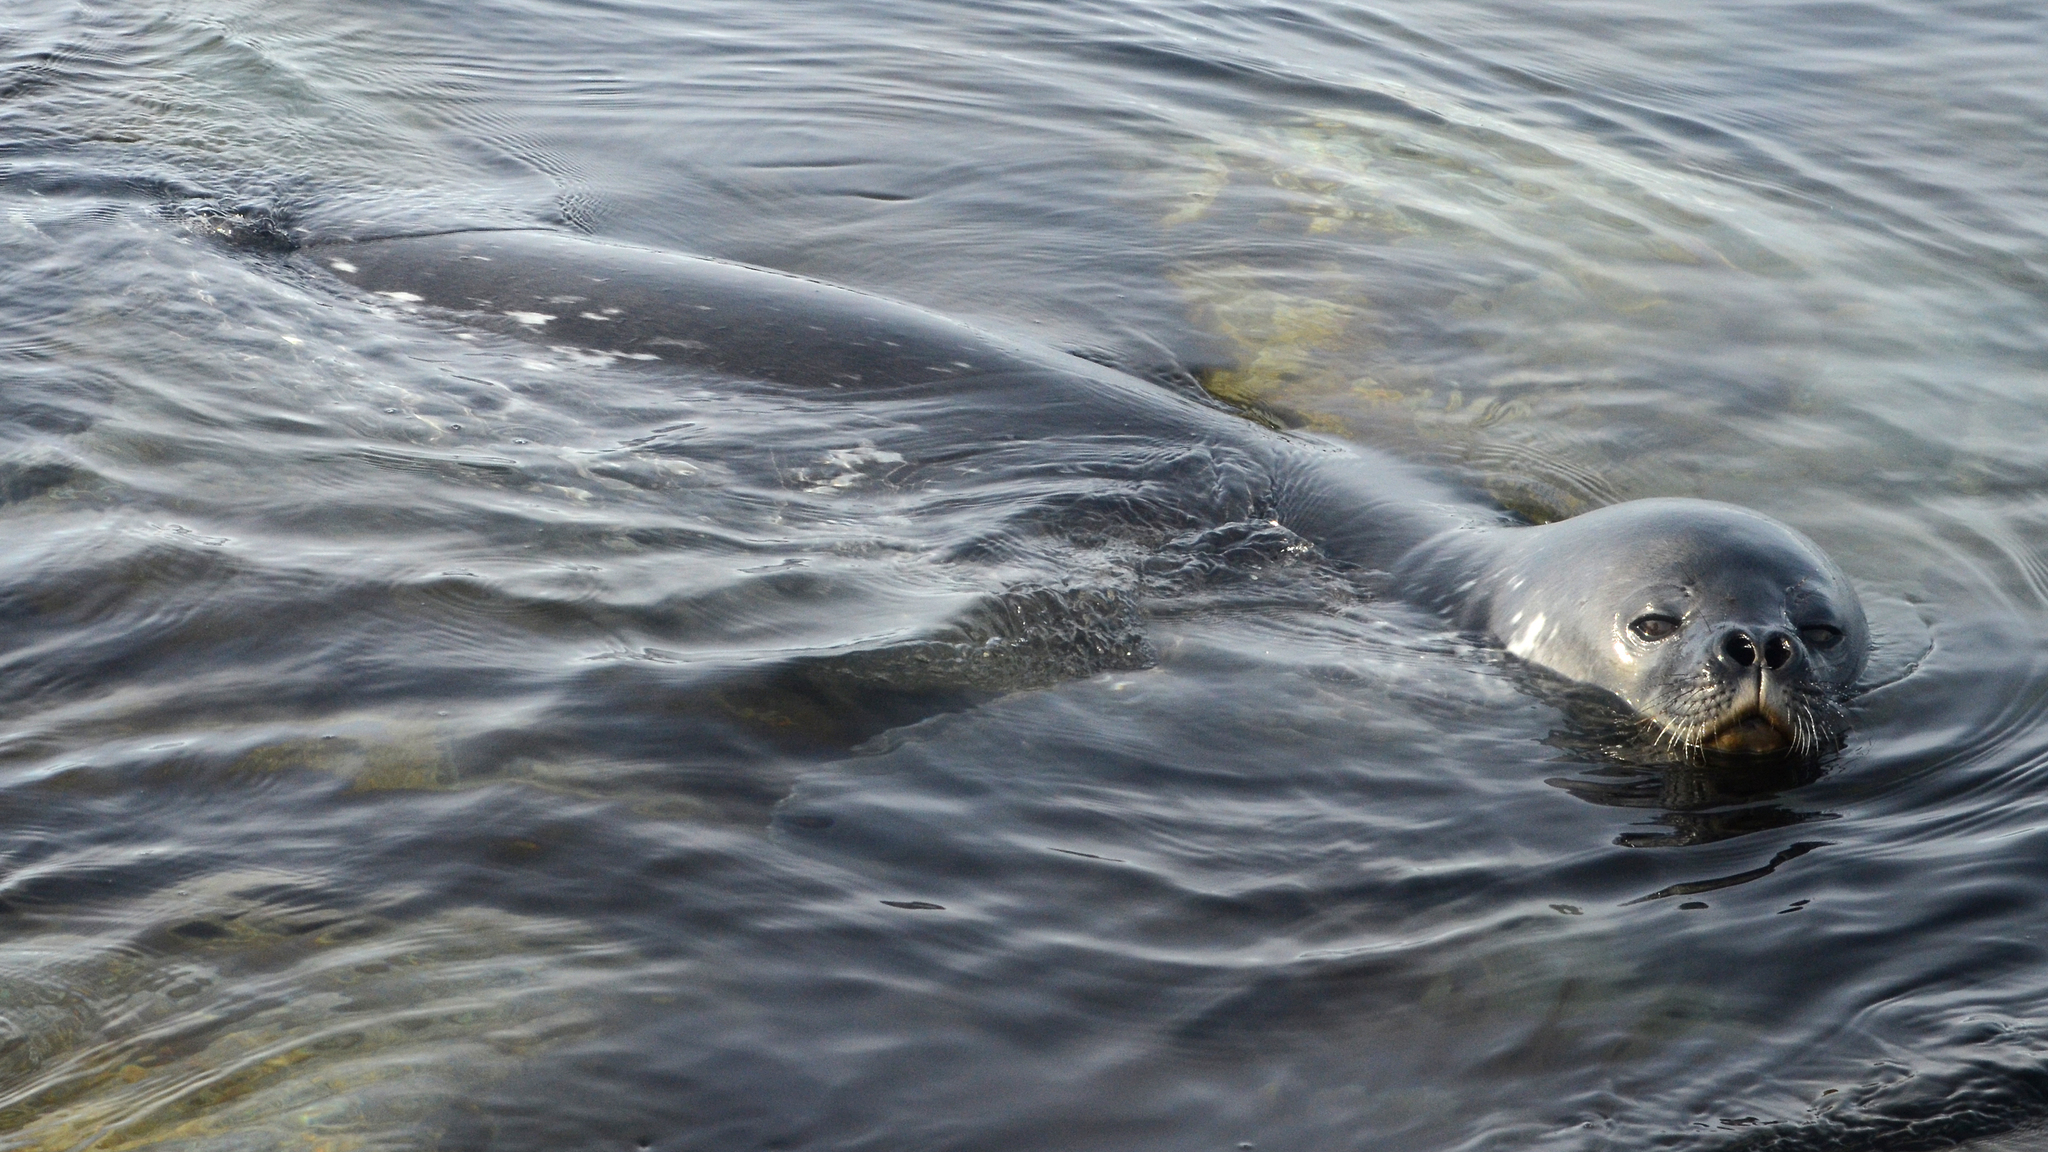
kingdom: Animalia
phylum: Chordata
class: Mammalia
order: Carnivora
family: Phocidae
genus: Leptonychotes
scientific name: Leptonychotes weddellii
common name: Weddell seal
